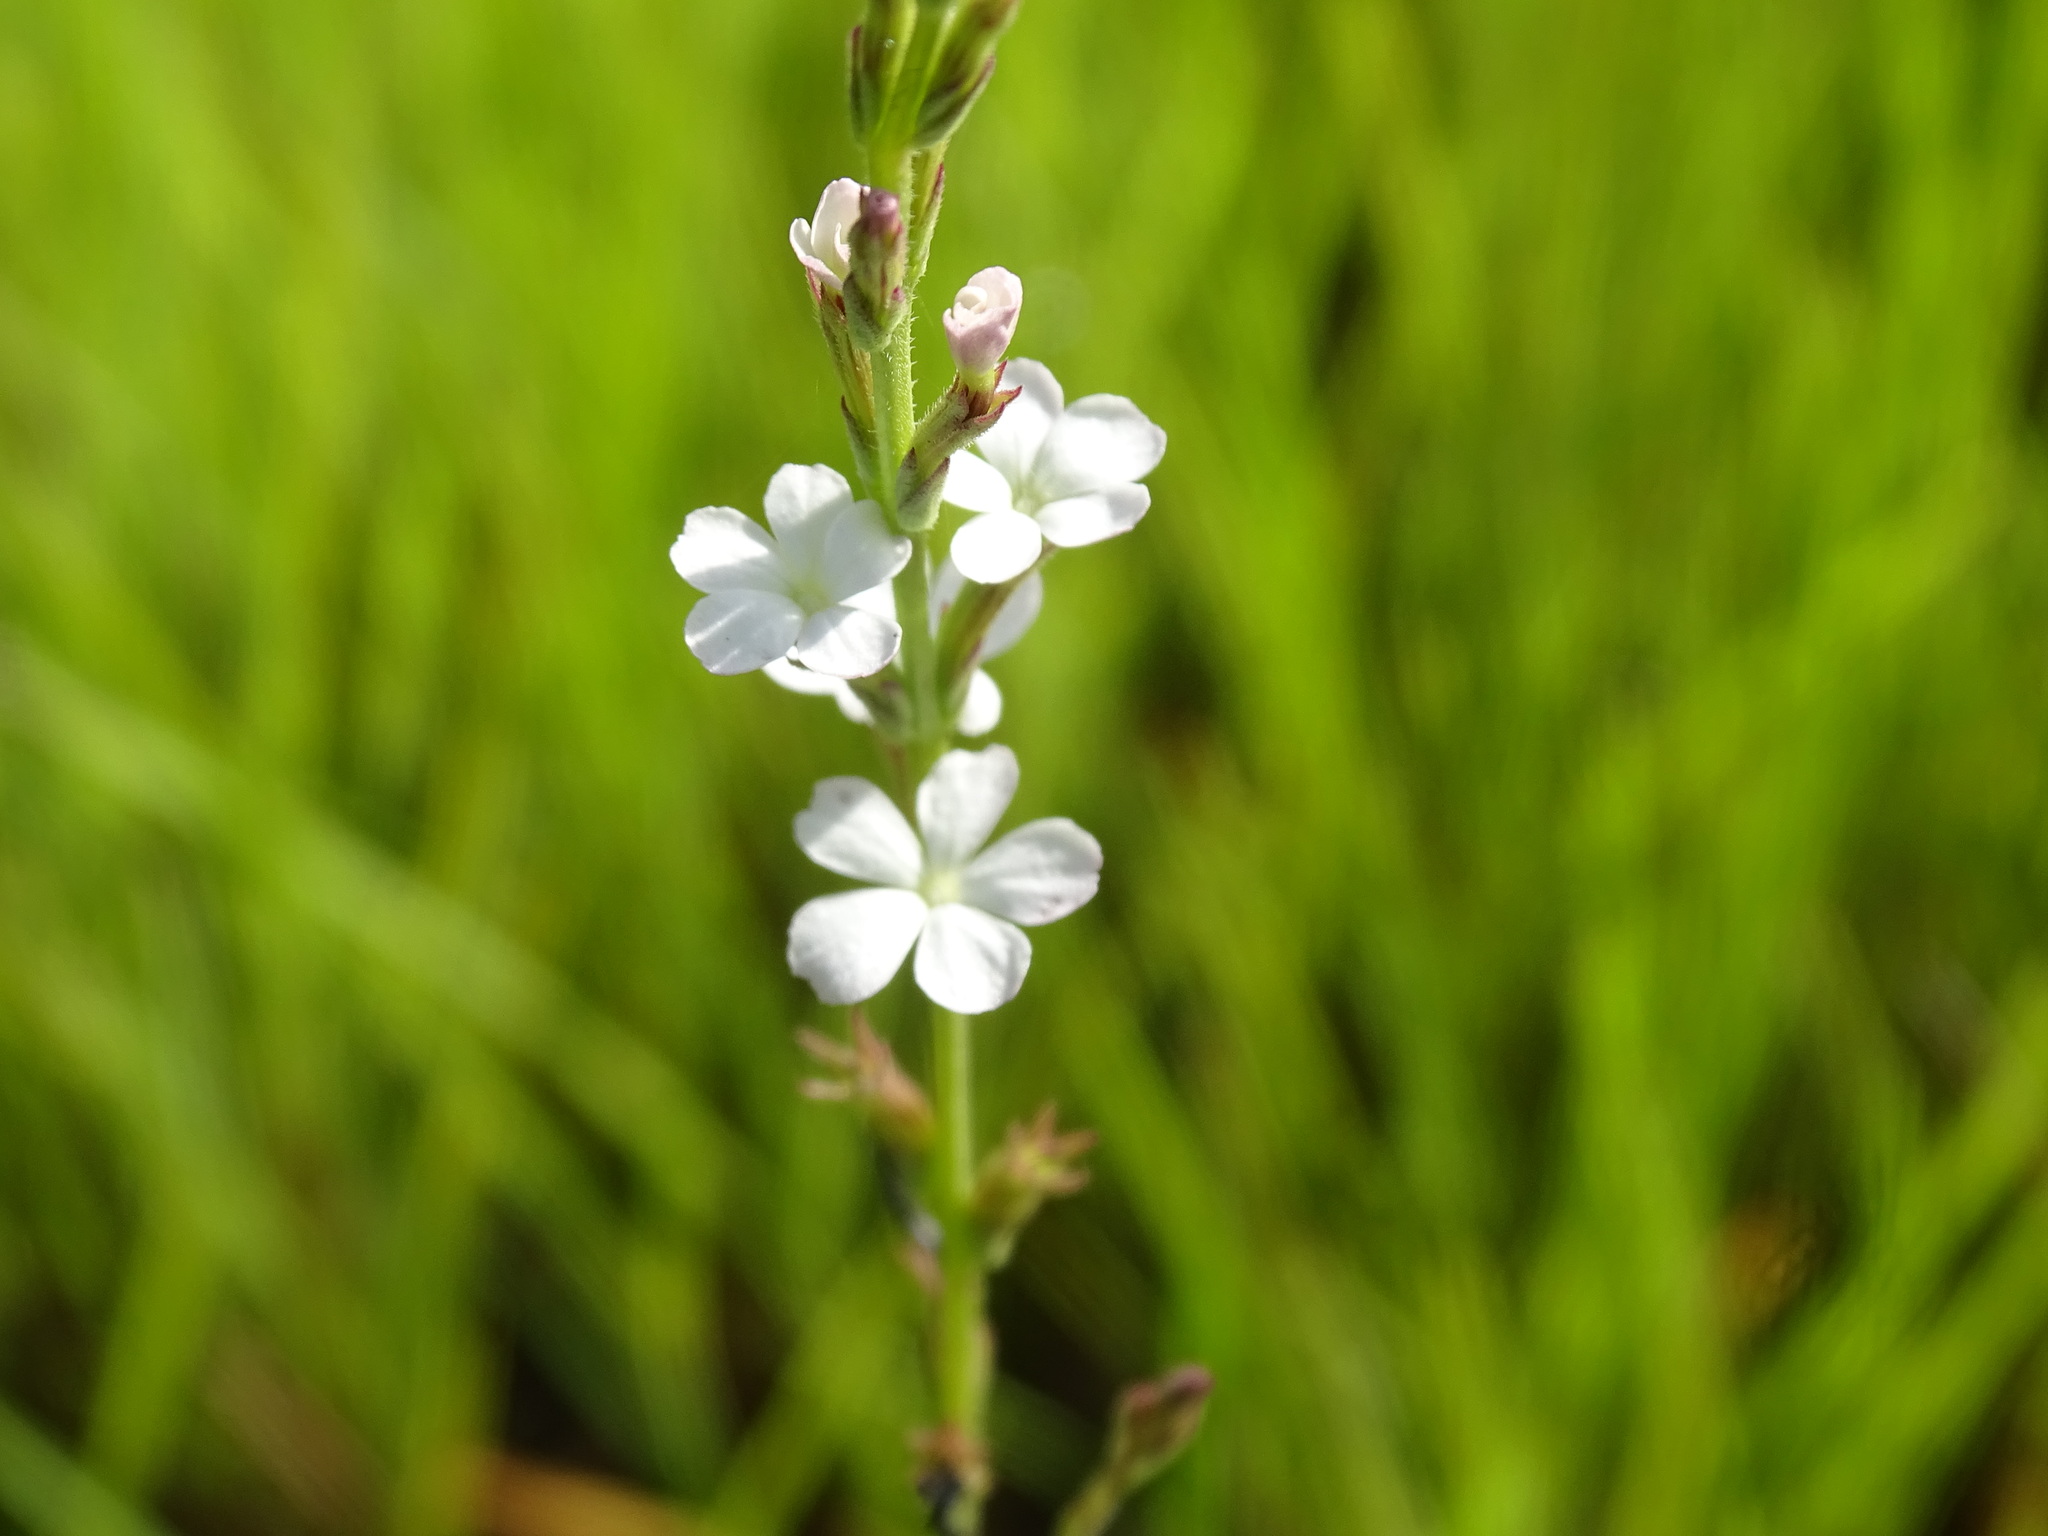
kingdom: Plantae
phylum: Tracheophyta
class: Magnoliopsida
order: Lamiales
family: Orobanchaceae
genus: Buchnera
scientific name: Buchnera pusilla
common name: Pygmy bluehearts
